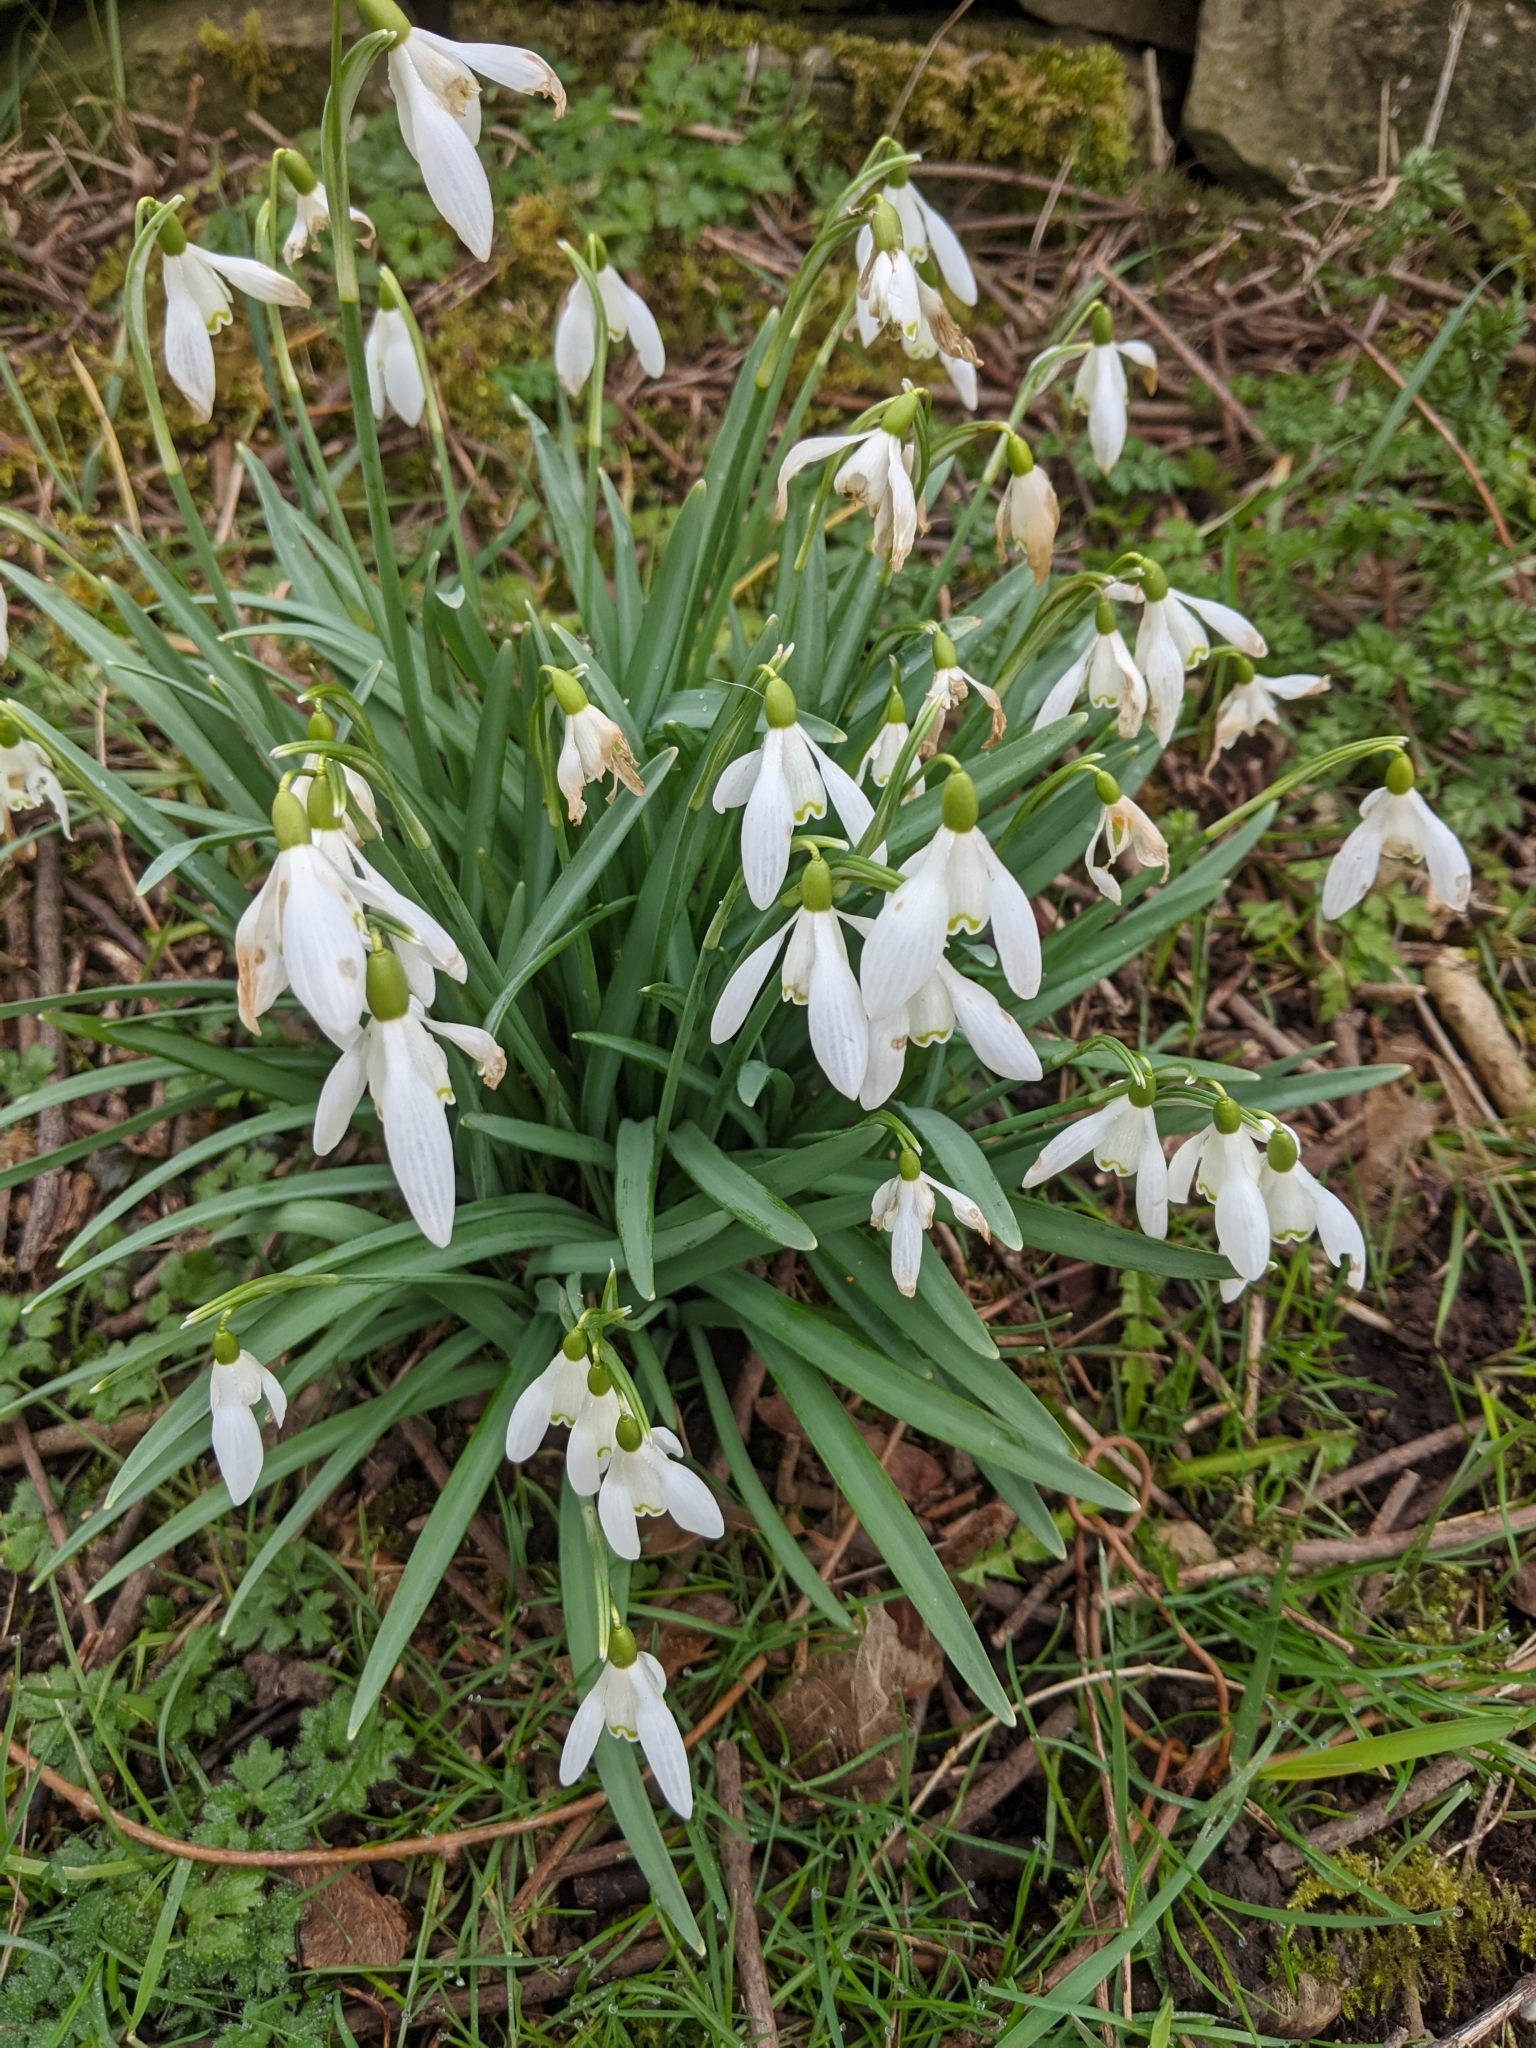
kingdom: Plantae
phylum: Tracheophyta
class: Liliopsida
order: Asparagales
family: Amaryllidaceae
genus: Galanthus
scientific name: Galanthus nivalis
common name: Snowdrop
